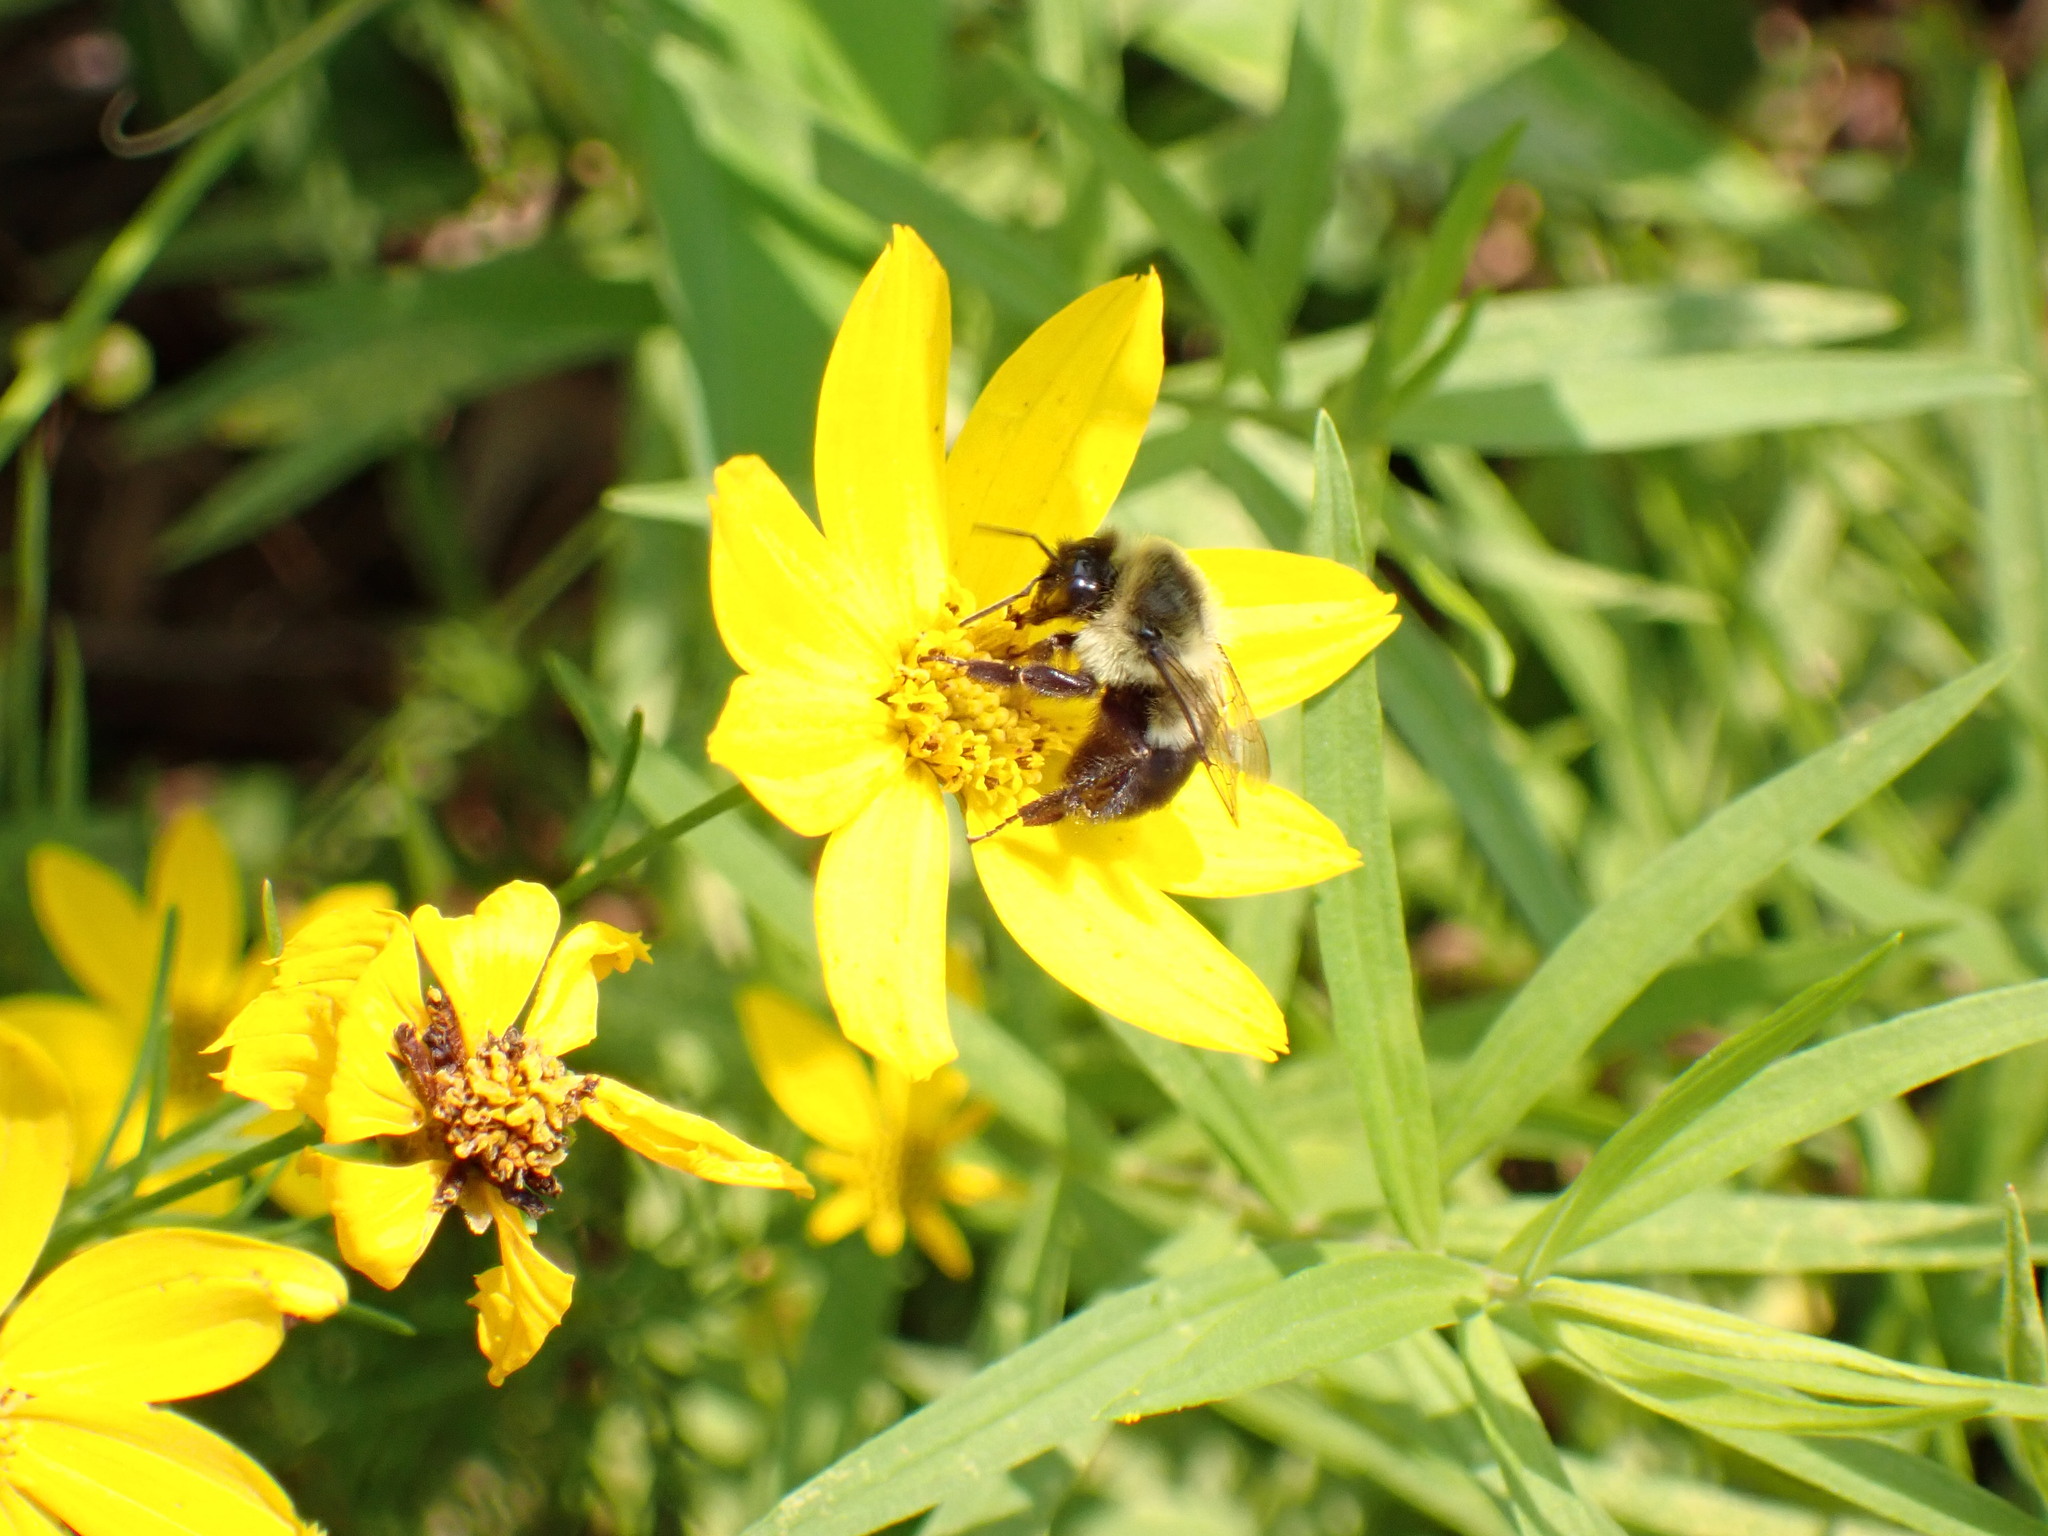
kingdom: Animalia
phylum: Arthropoda
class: Insecta
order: Hymenoptera
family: Apidae
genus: Bombus
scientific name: Bombus impatiens
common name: Common eastern bumble bee
